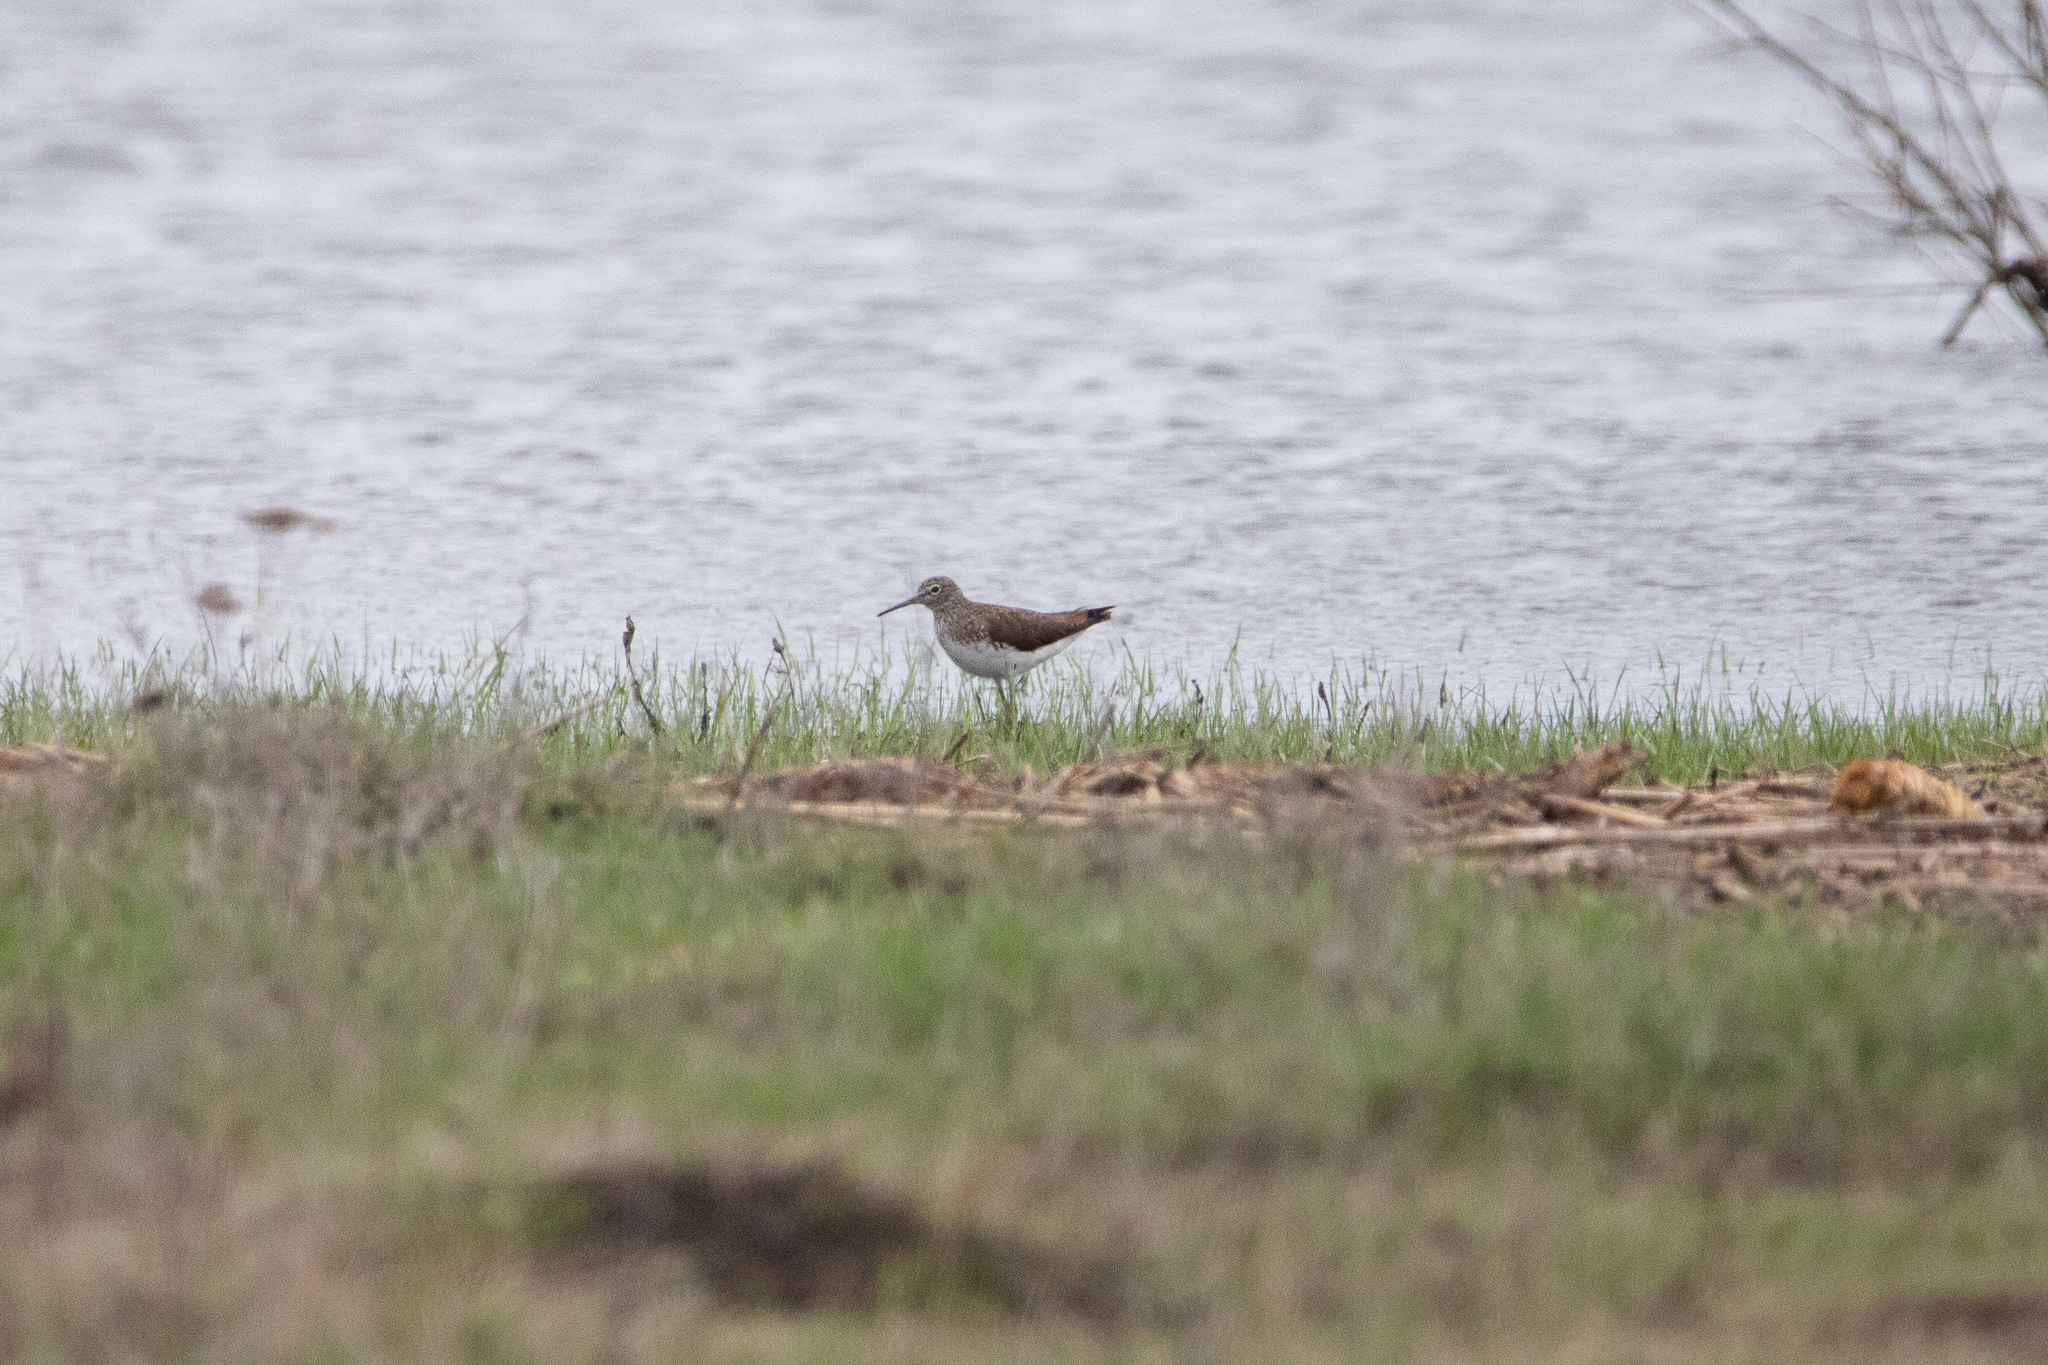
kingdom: Animalia
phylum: Chordata
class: Aves
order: Charadriiformes
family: Scolopacidae
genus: Tringa
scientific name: Tringa ochropus
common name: Green sandpiper
